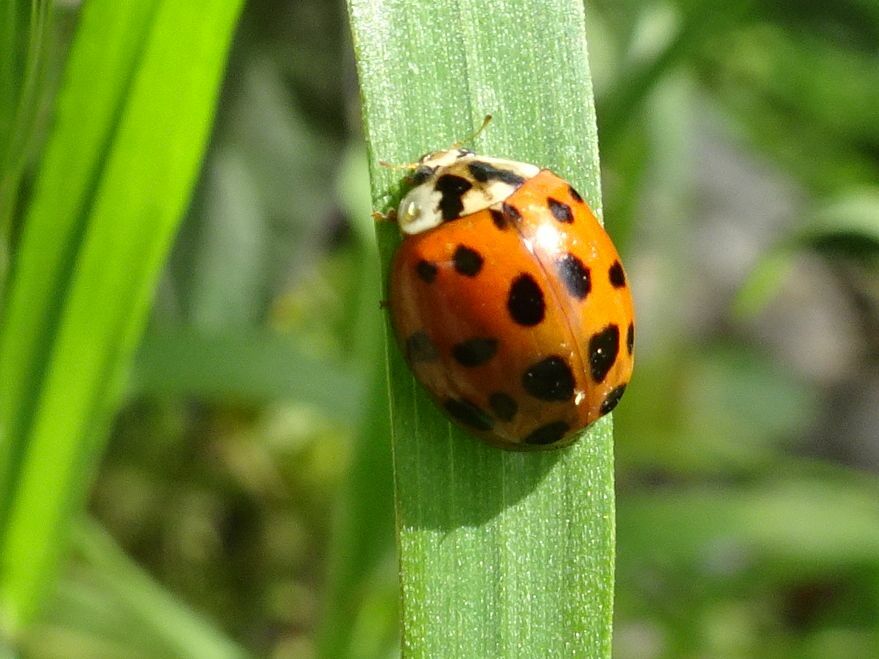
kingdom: Animalia
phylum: Arthropoda
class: Insecta
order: Coleoptera
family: Coccinellidae
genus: Harmonia
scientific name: Harmonia axyridis
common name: Harlequin ladybird
